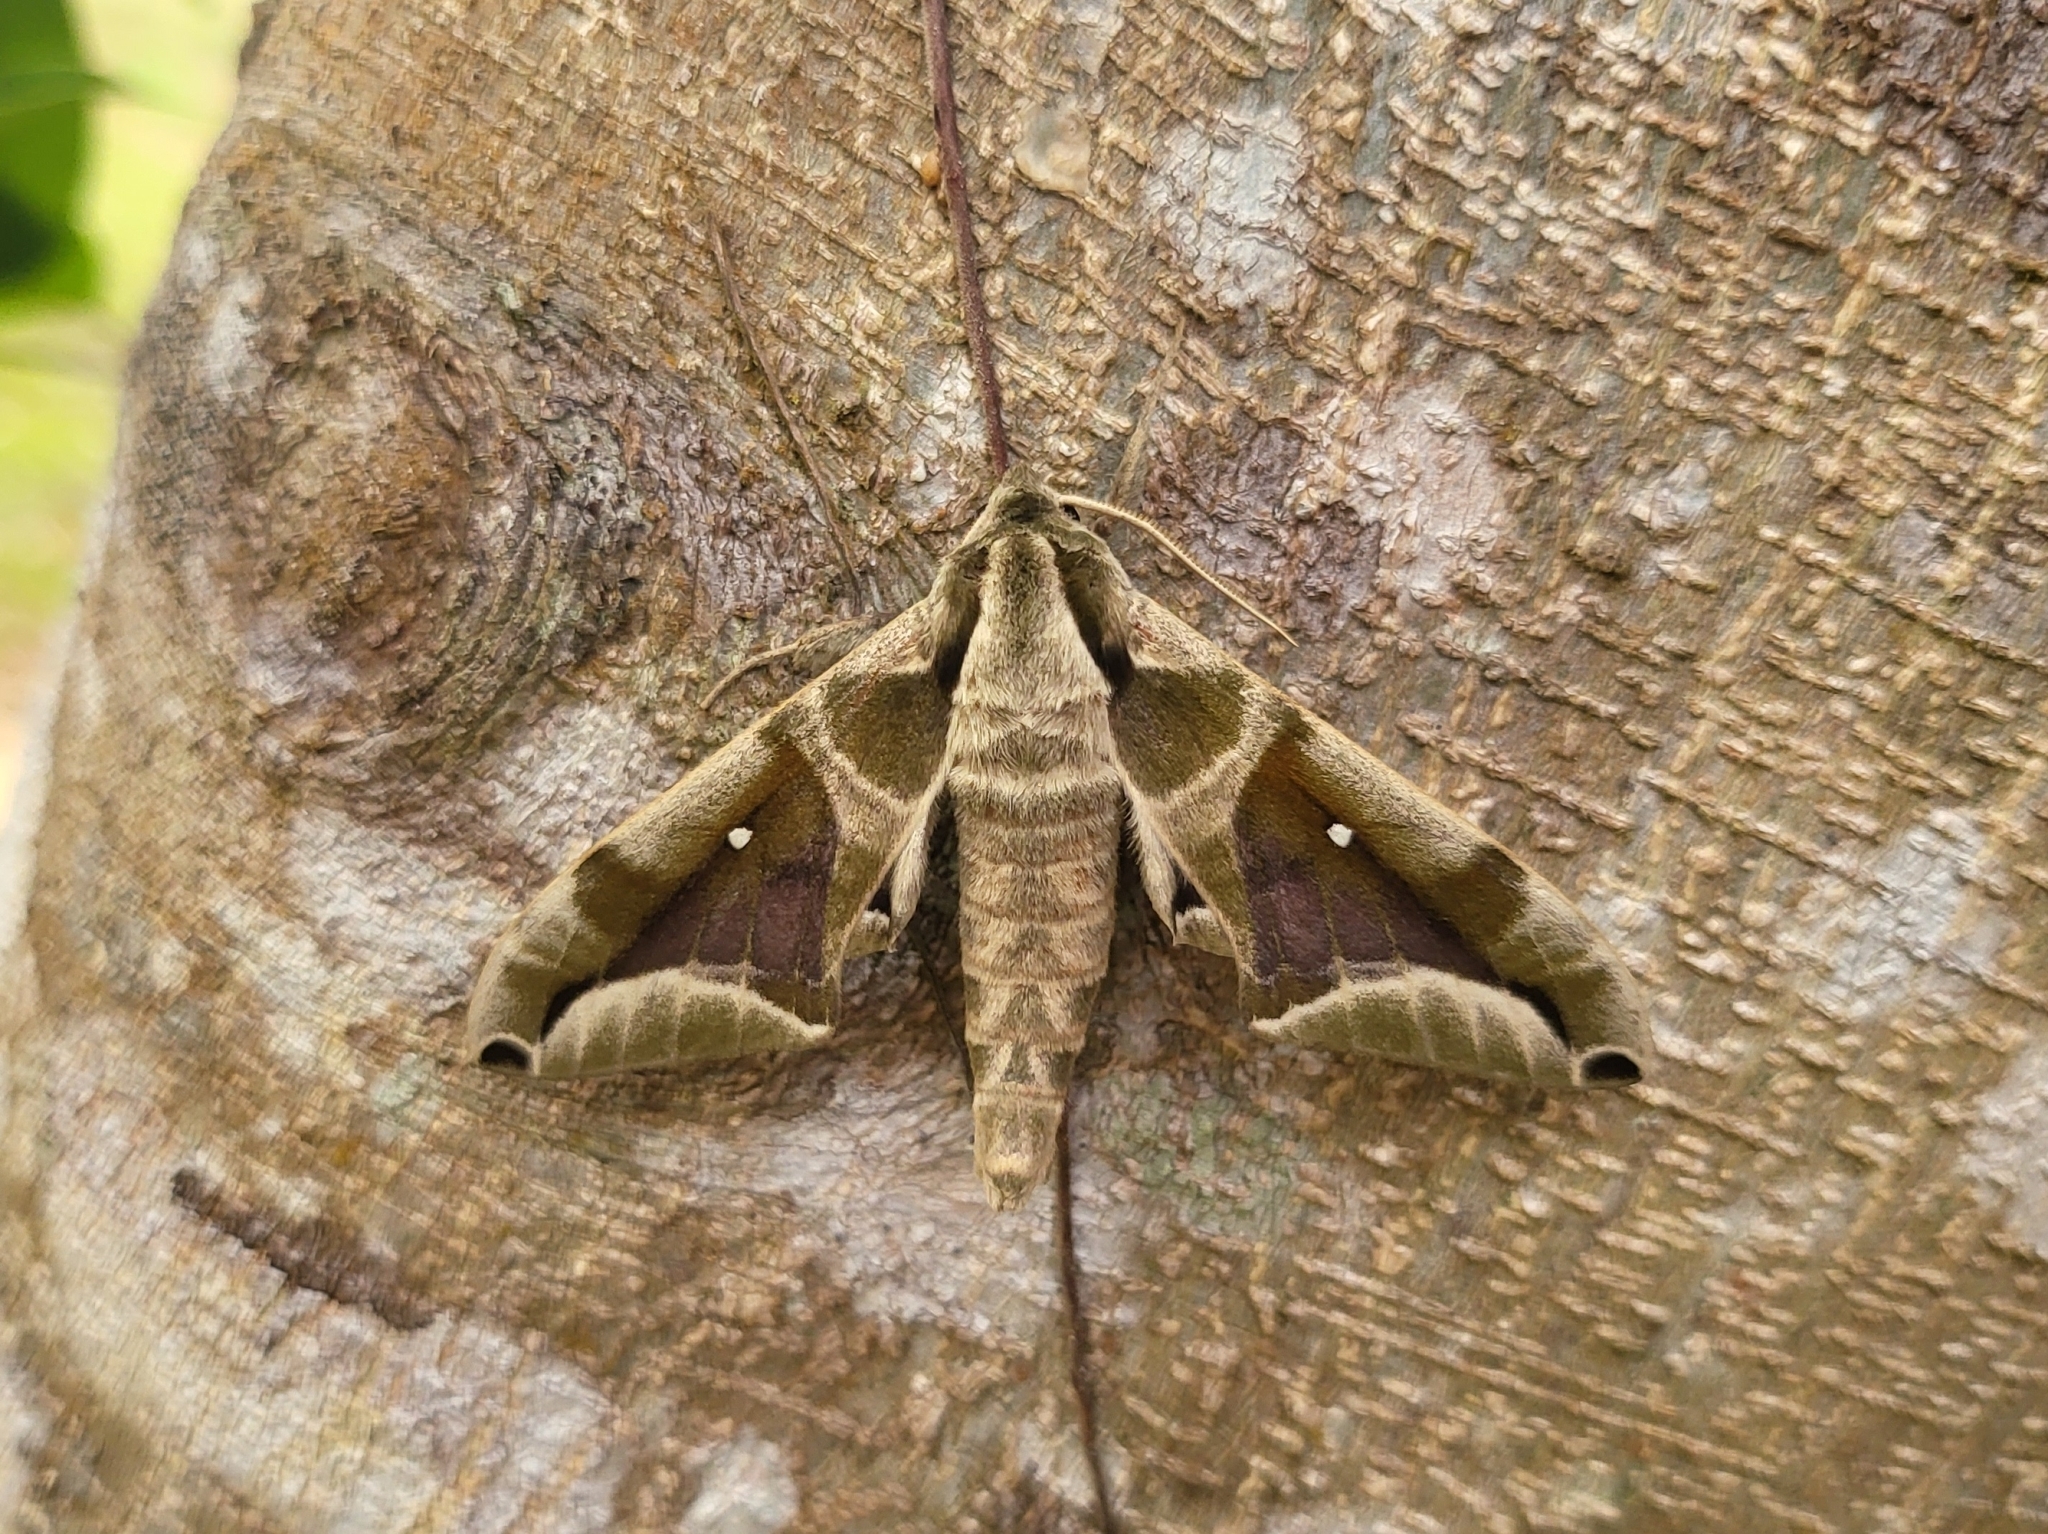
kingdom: Animalia
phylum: Arthropoda
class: Insecta
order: Lepidoptera
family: Sphingidae
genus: Parum
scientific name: Parum colligata
